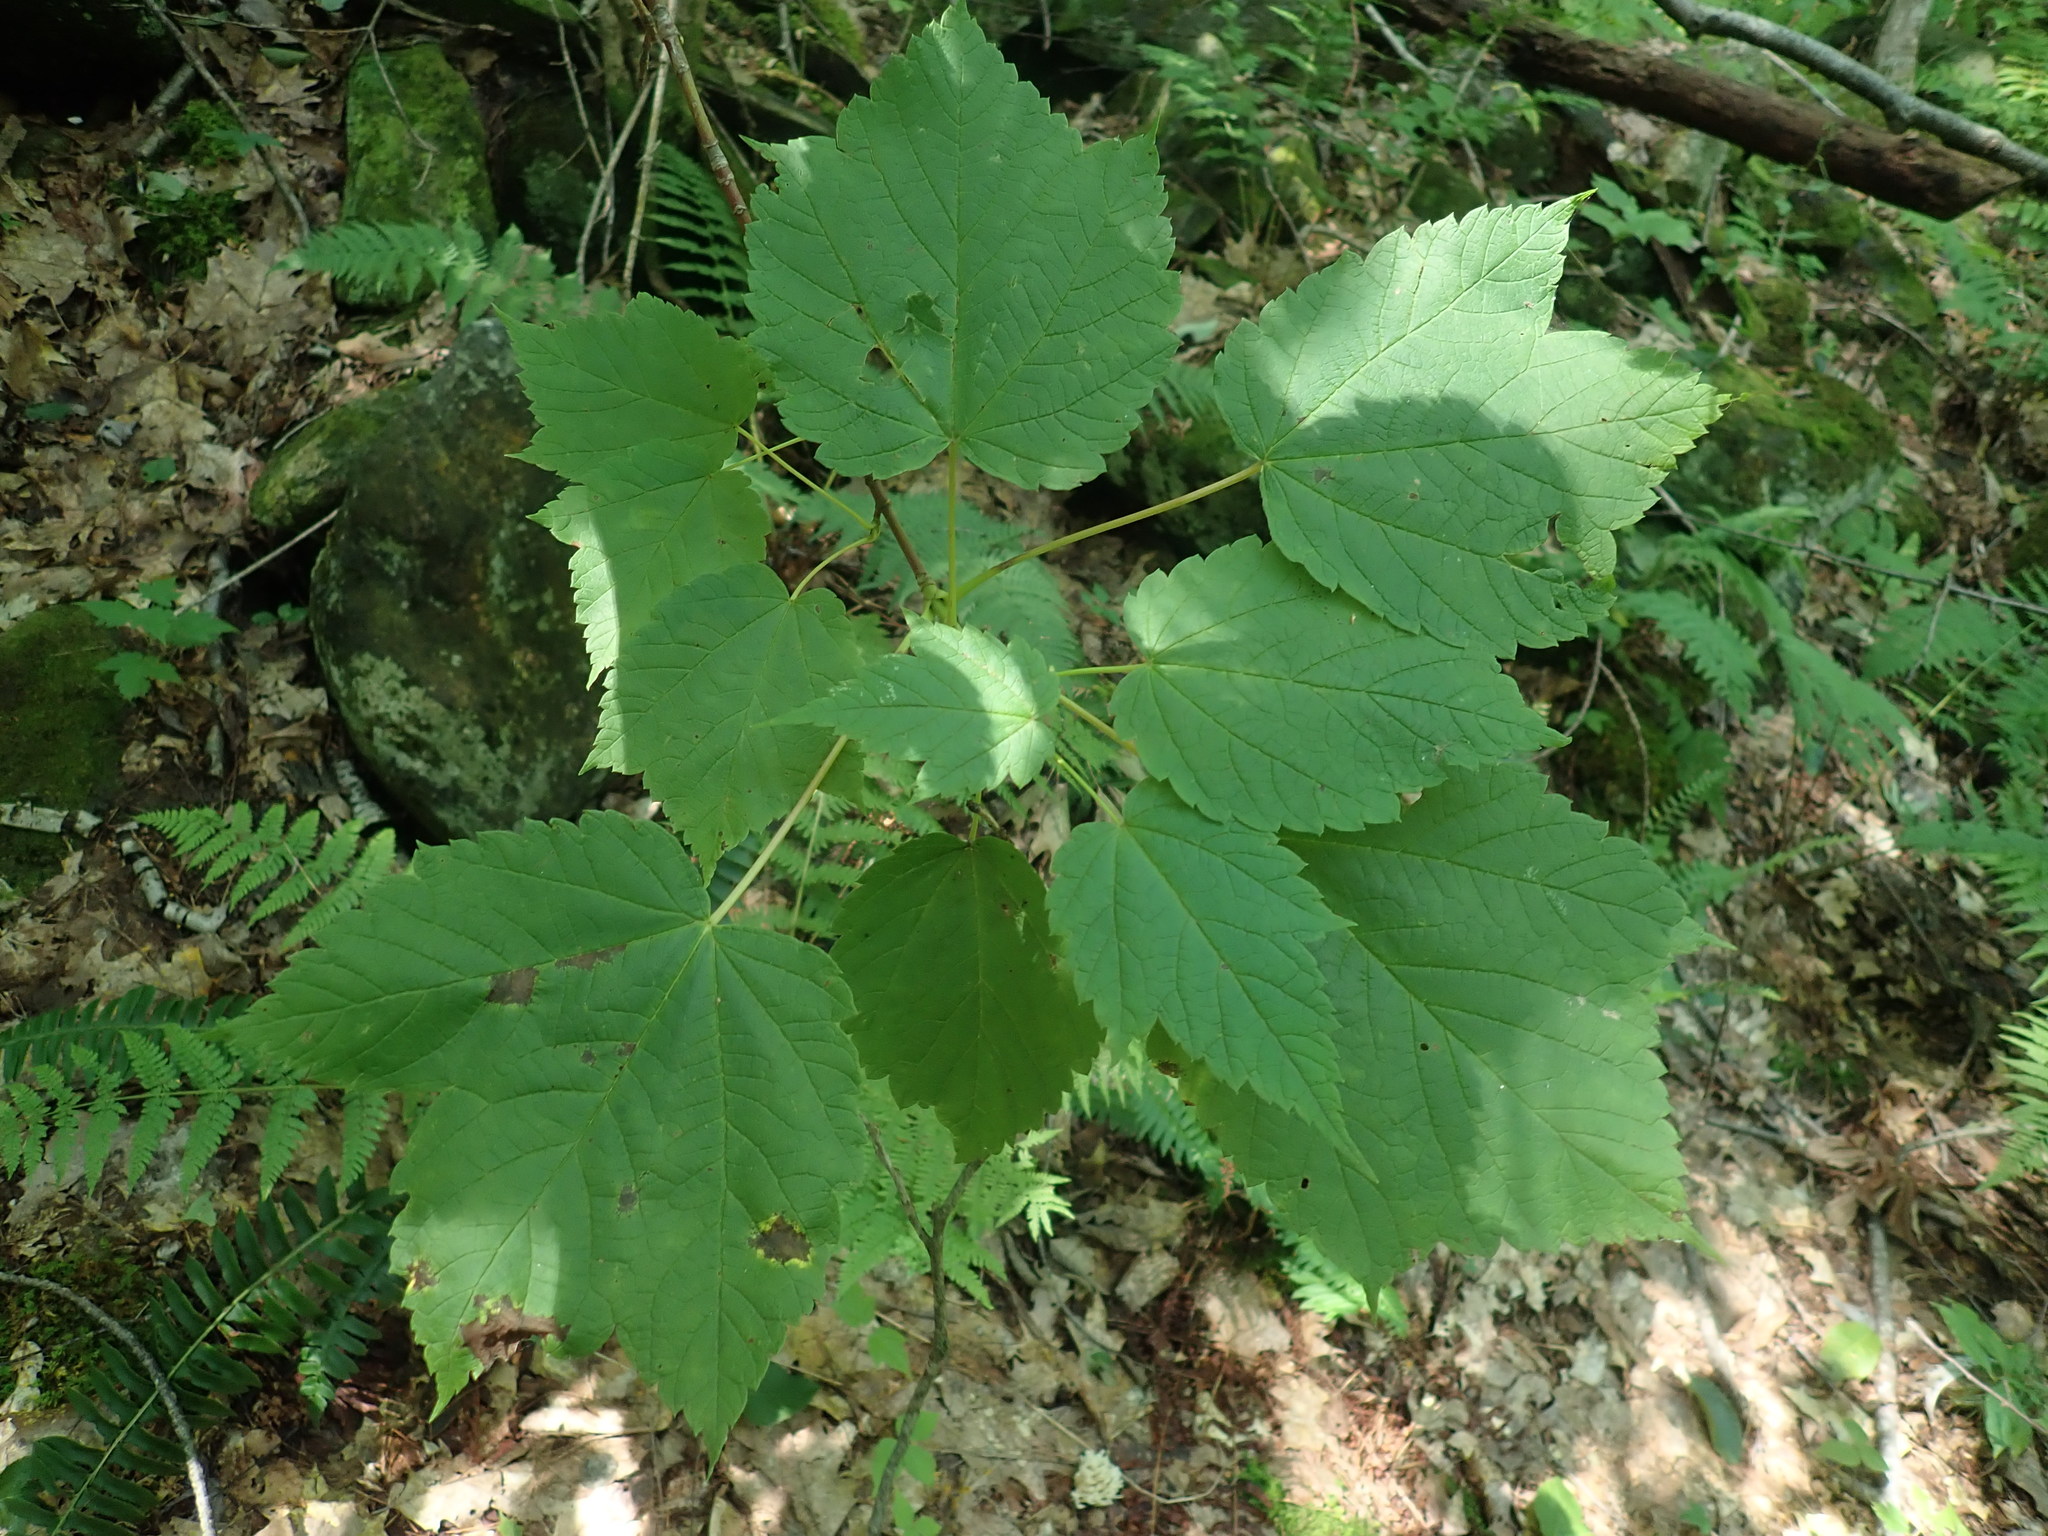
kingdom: Plantae
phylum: Tracheophyta
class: Magnoliopsida
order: Sapindales
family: Sapindaceae
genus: Acer
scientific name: Acer spicatum
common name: Mountain maple
